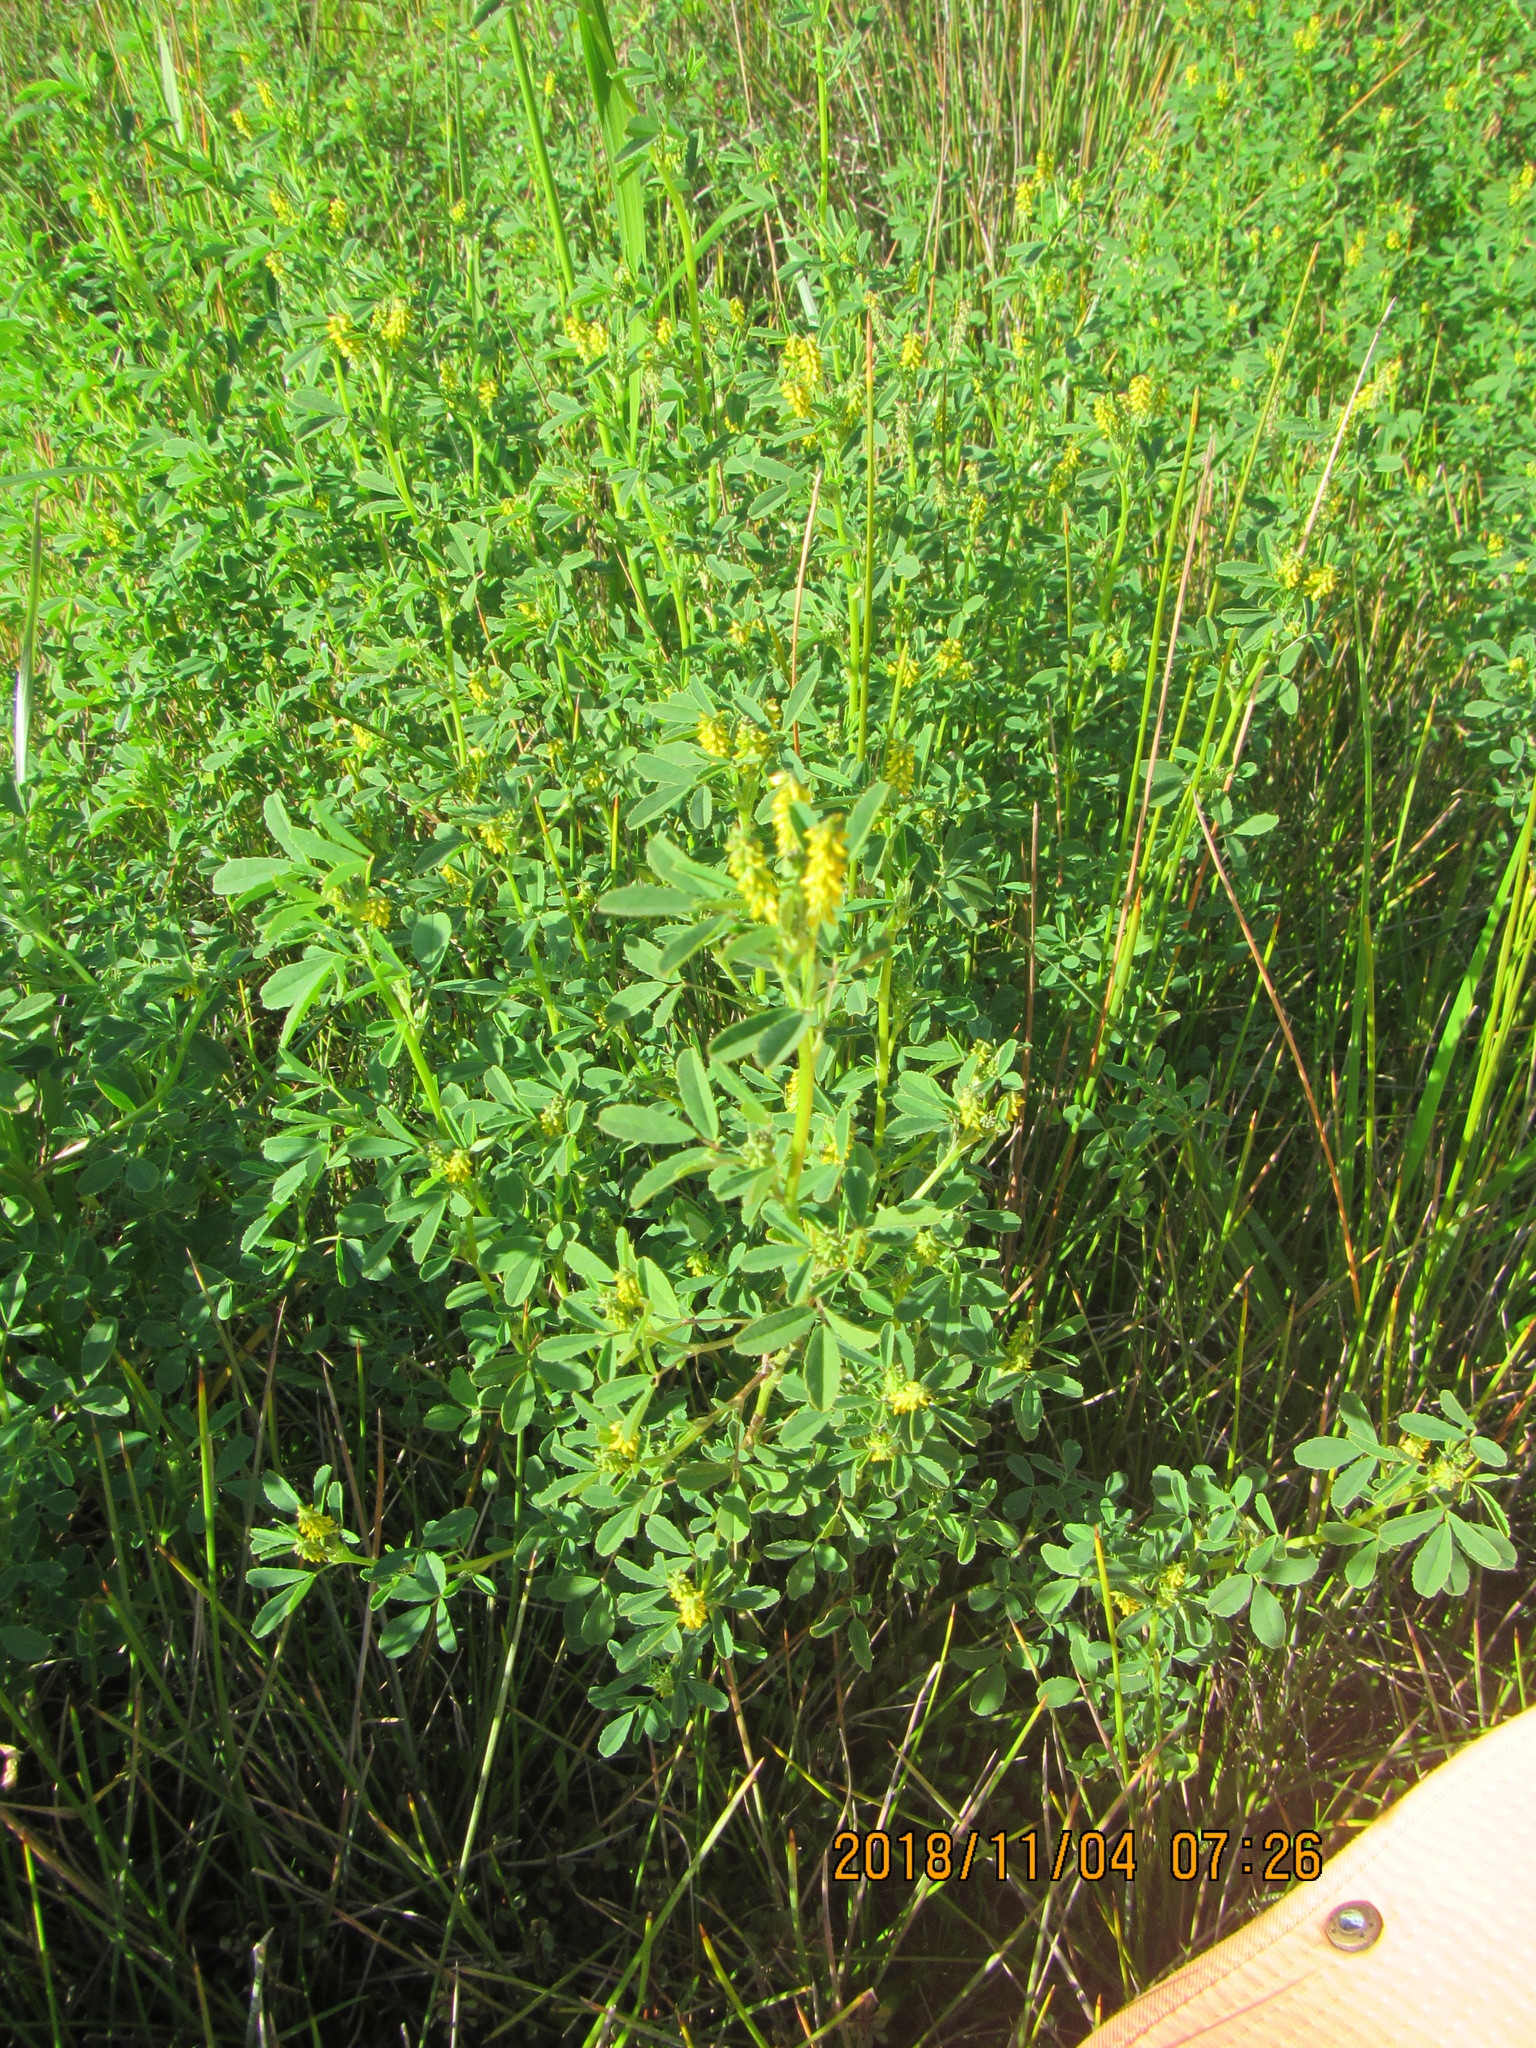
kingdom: Plantae
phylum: Tracheophyta
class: Magnoliopsida
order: Fabales
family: Fabaceae
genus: Melilotus
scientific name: Melilotus indicus
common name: Small melilot
